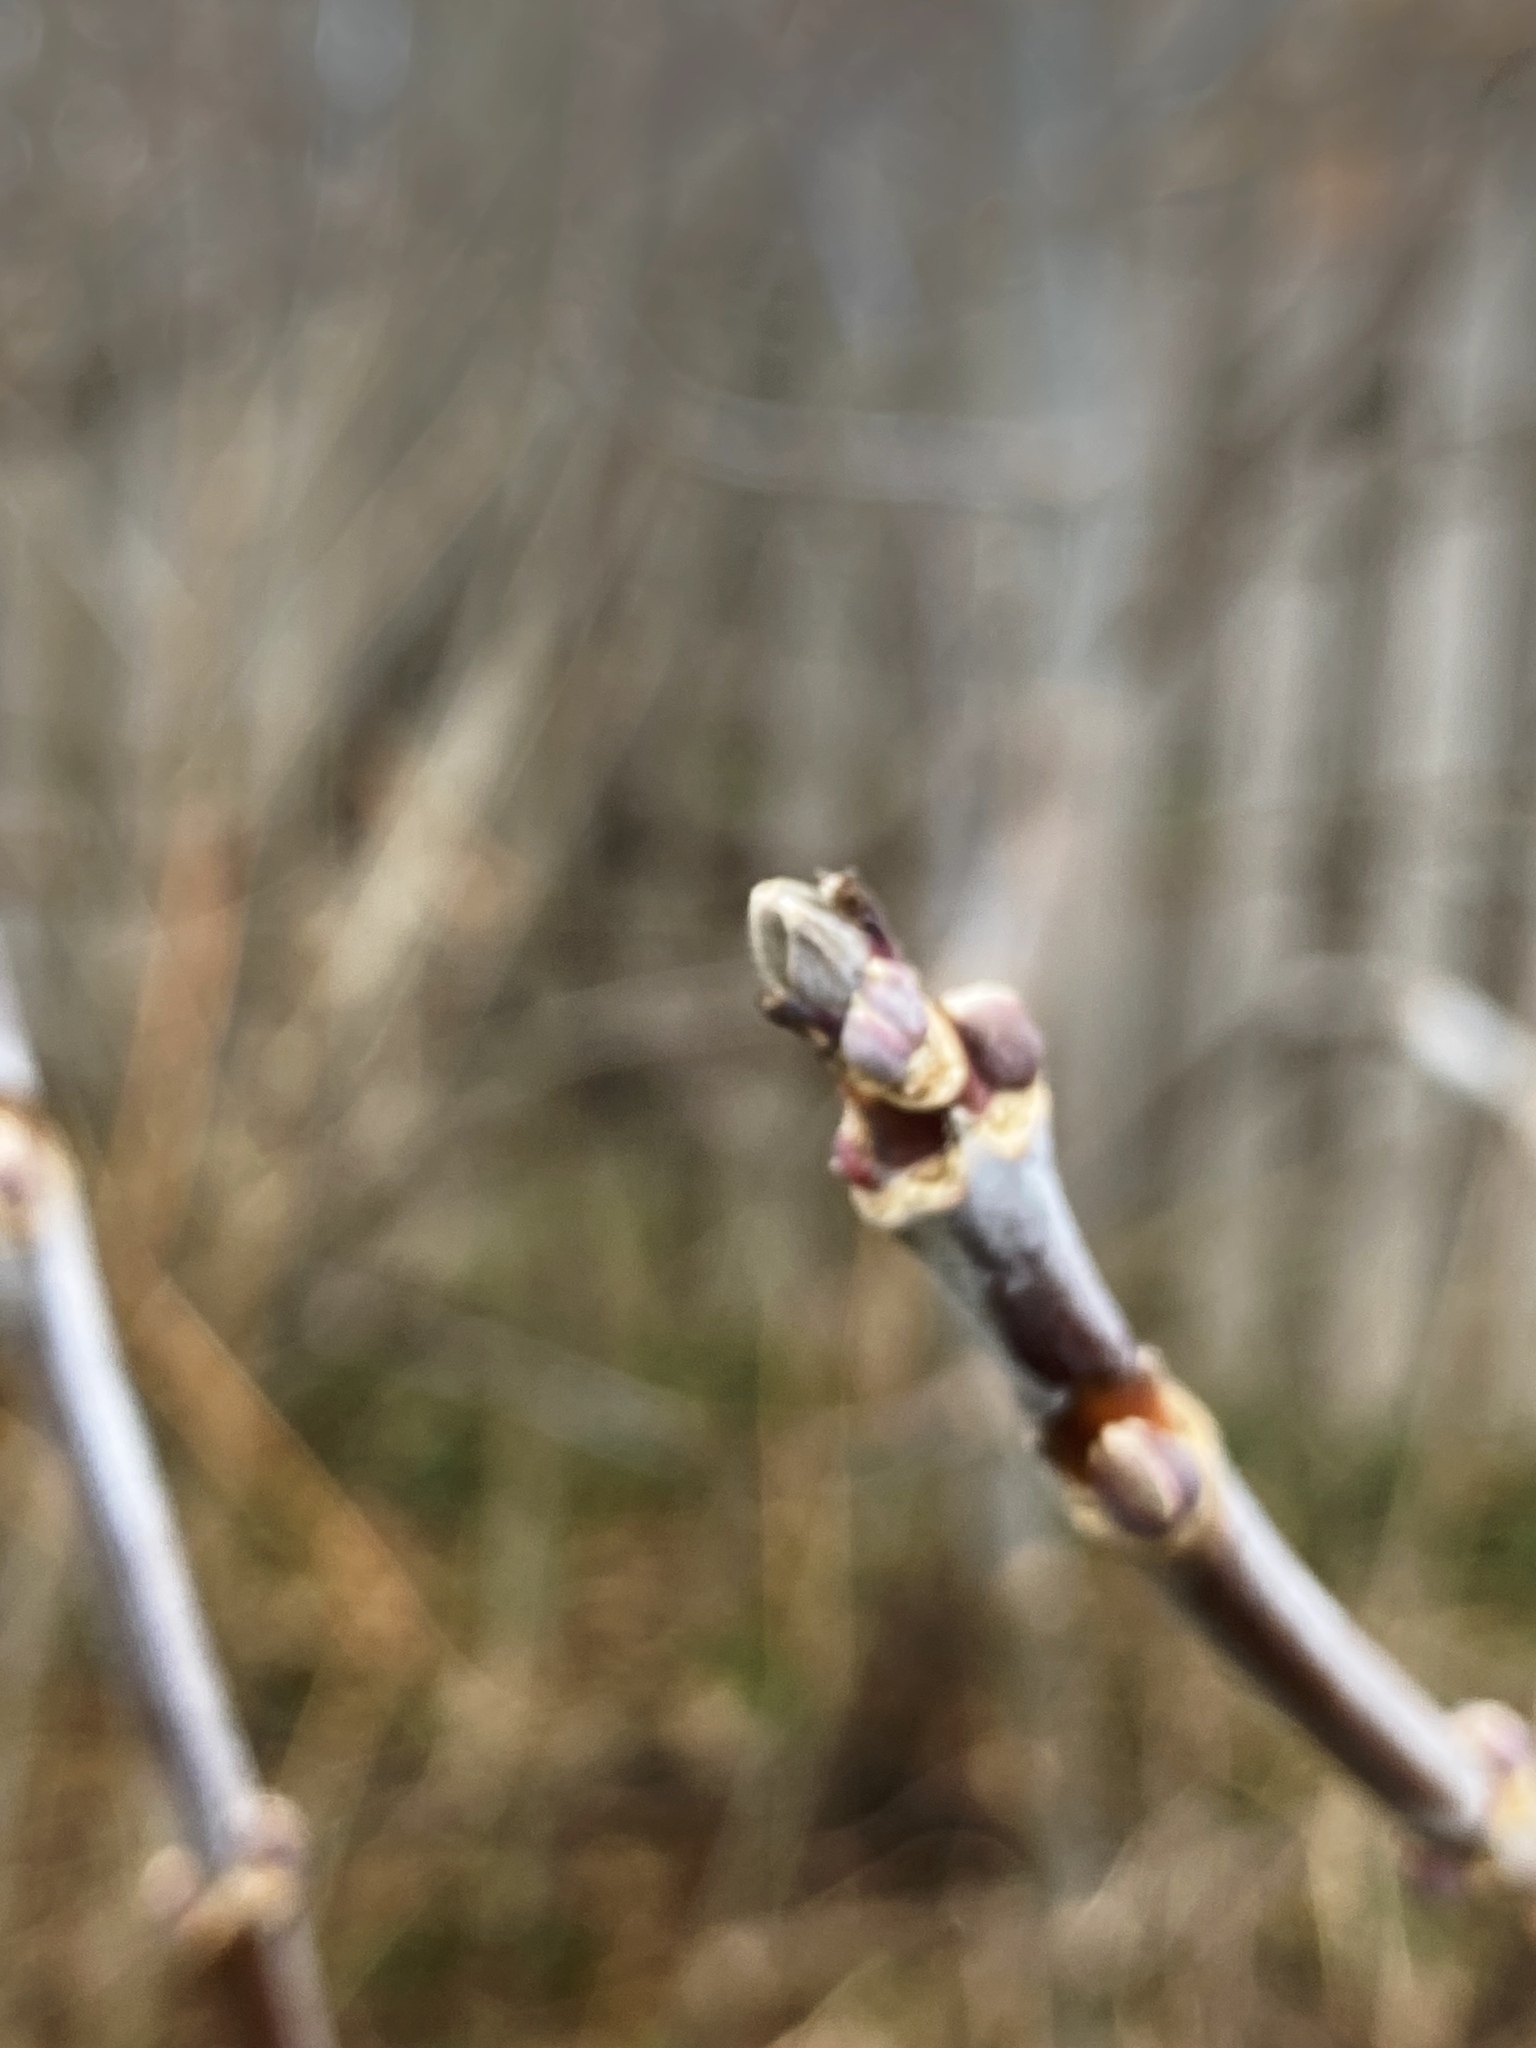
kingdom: Plantae
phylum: Tracheophyta
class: Magnoliopsida
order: Sapindales
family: Sapindaceae
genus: Acer
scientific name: Acer negundo
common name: Ashleaf maple
